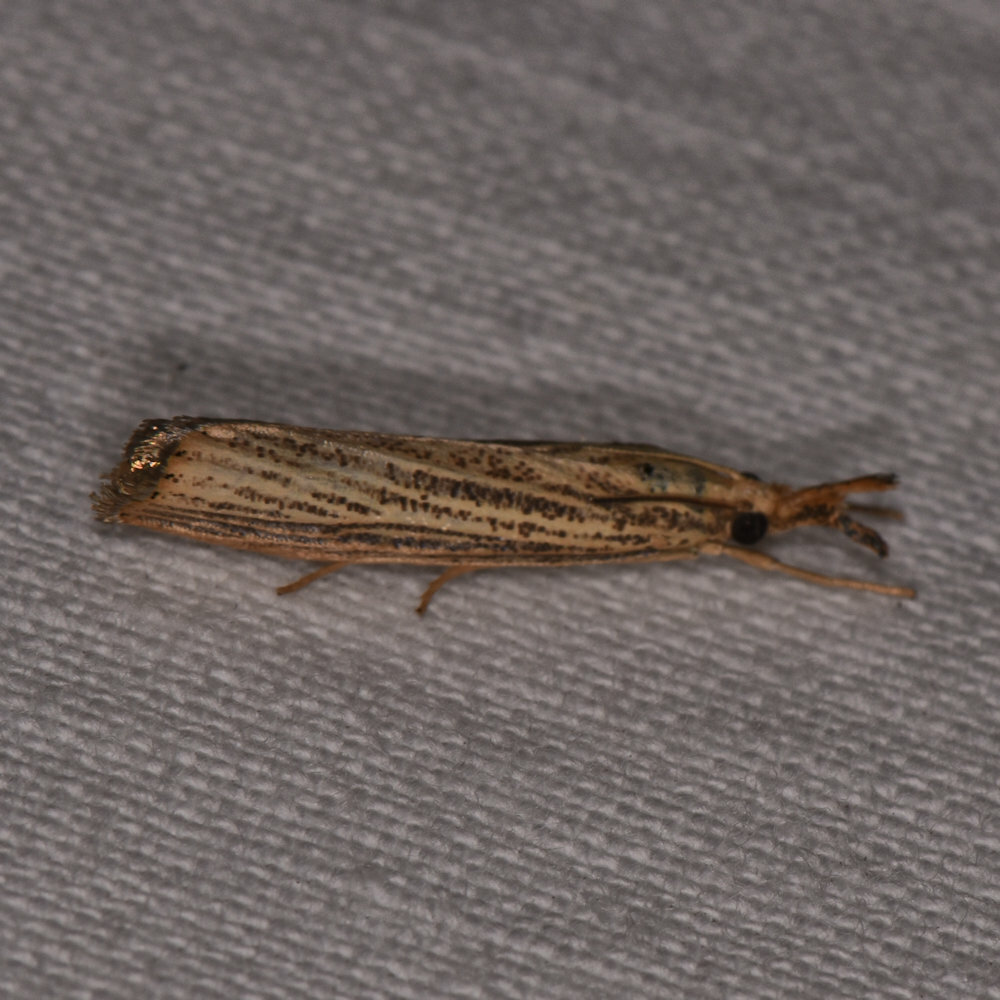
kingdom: Animalia
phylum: Arthropoda
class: Insecta
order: Lepidoptera
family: Crambidae
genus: Agriphila
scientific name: Agriphila vulgivagellus
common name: Vagabond crambus moth
